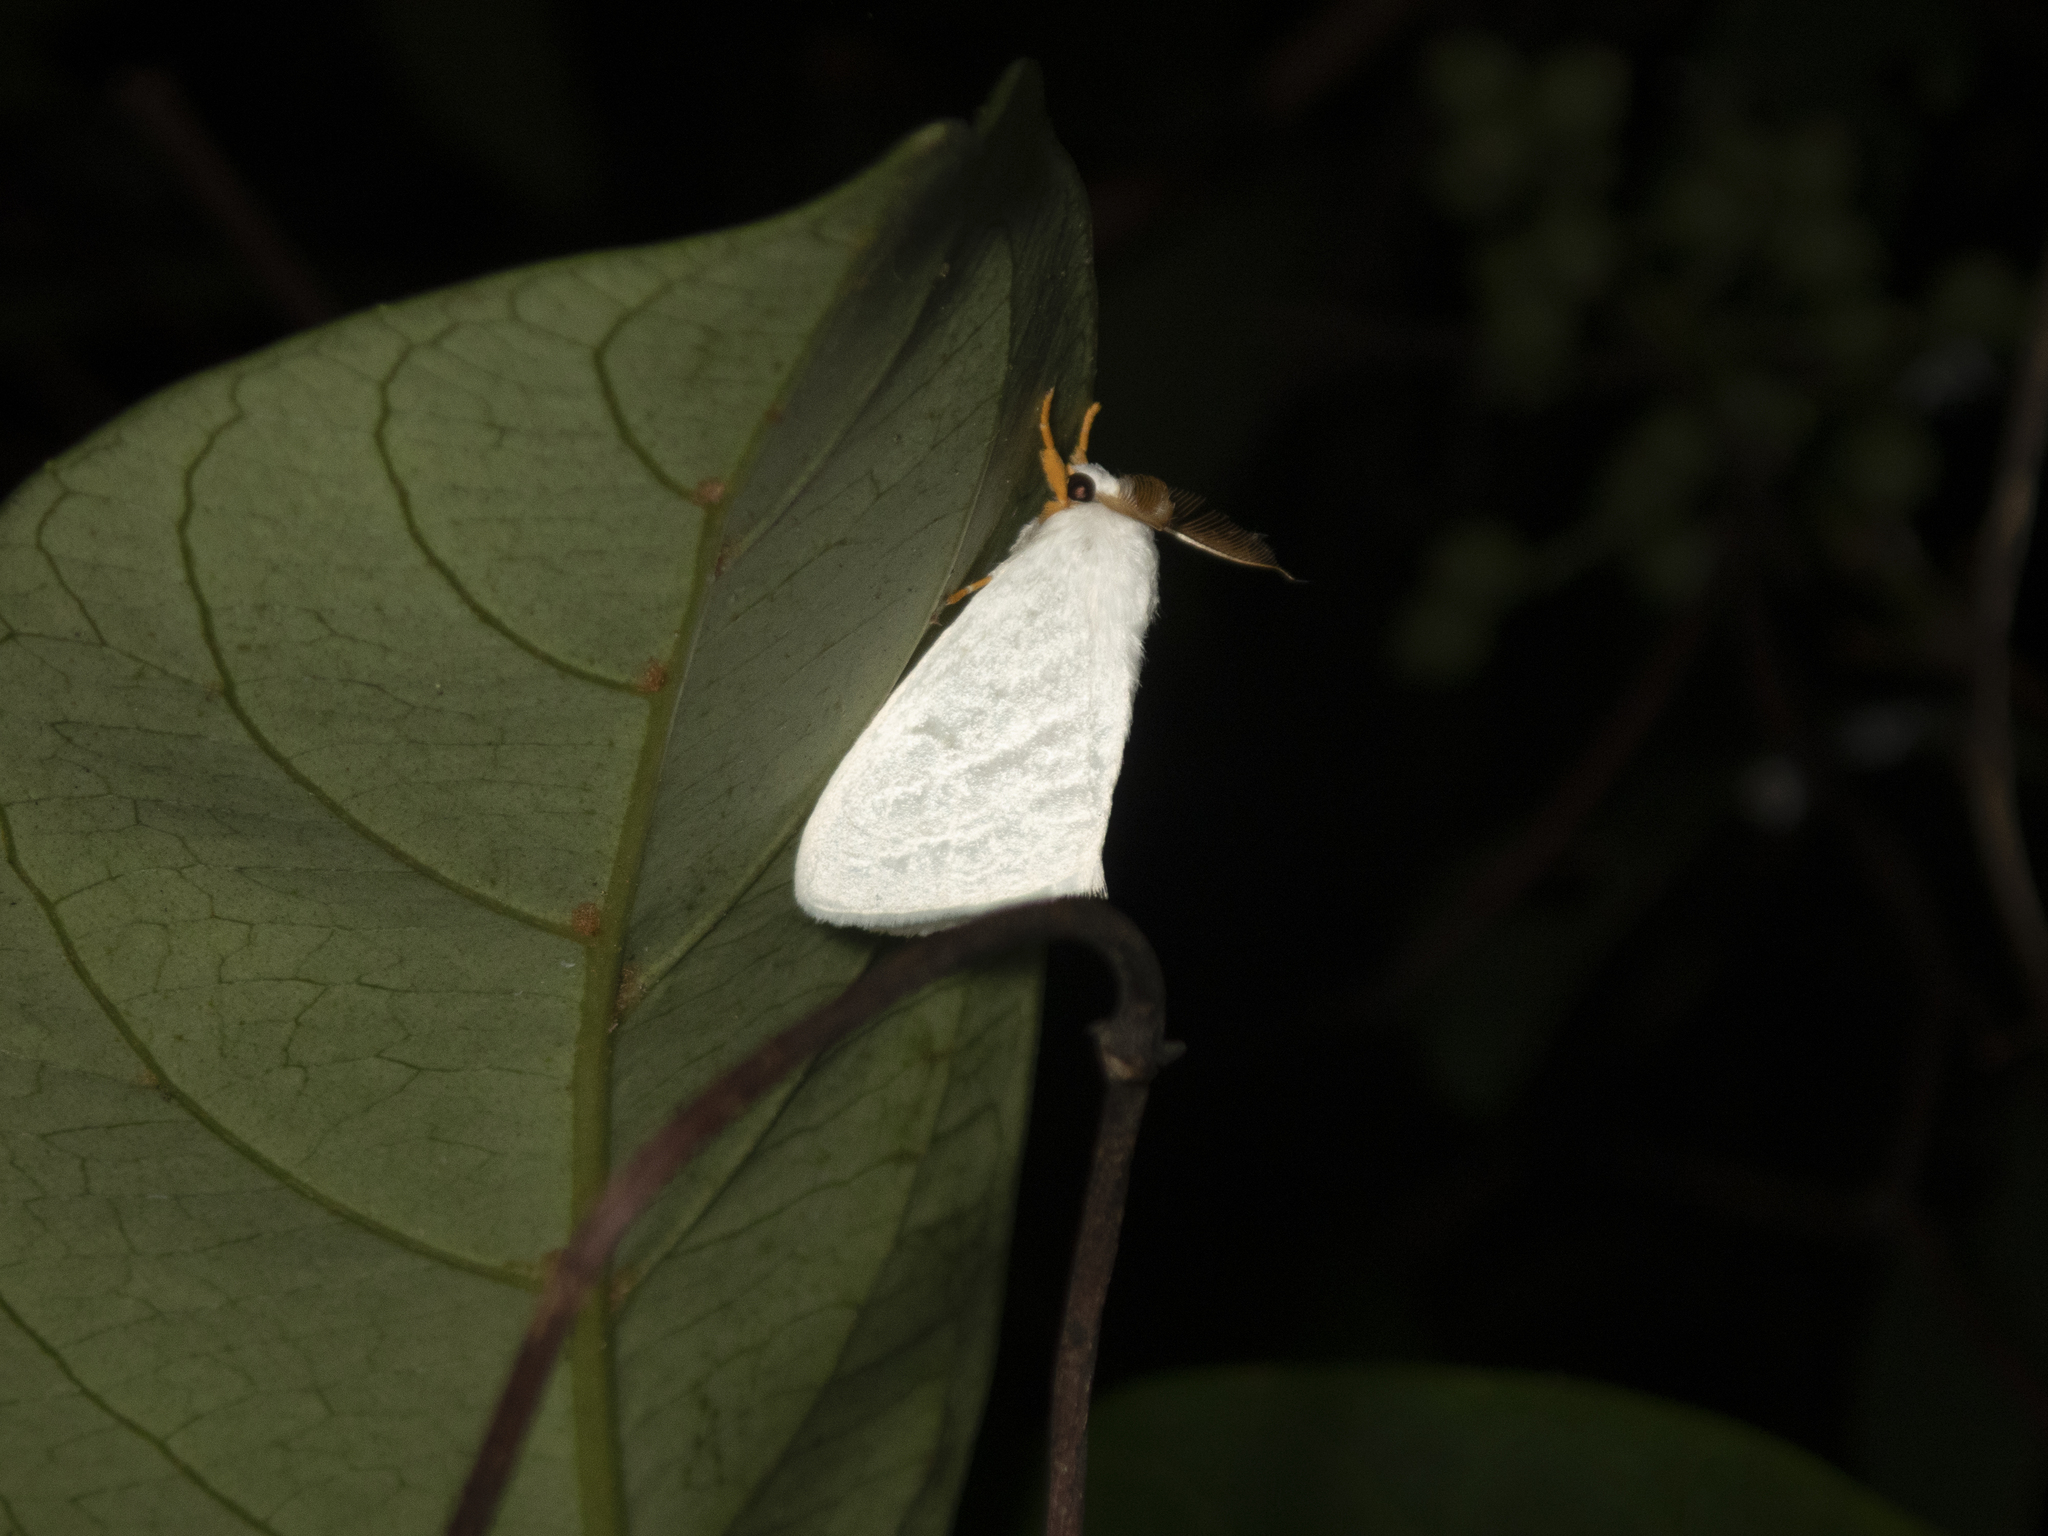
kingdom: Animalia
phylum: Arthropoda
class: Insecta
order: Lepidoptera
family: Erebidae
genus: Leucoma
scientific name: Leucoma clara
